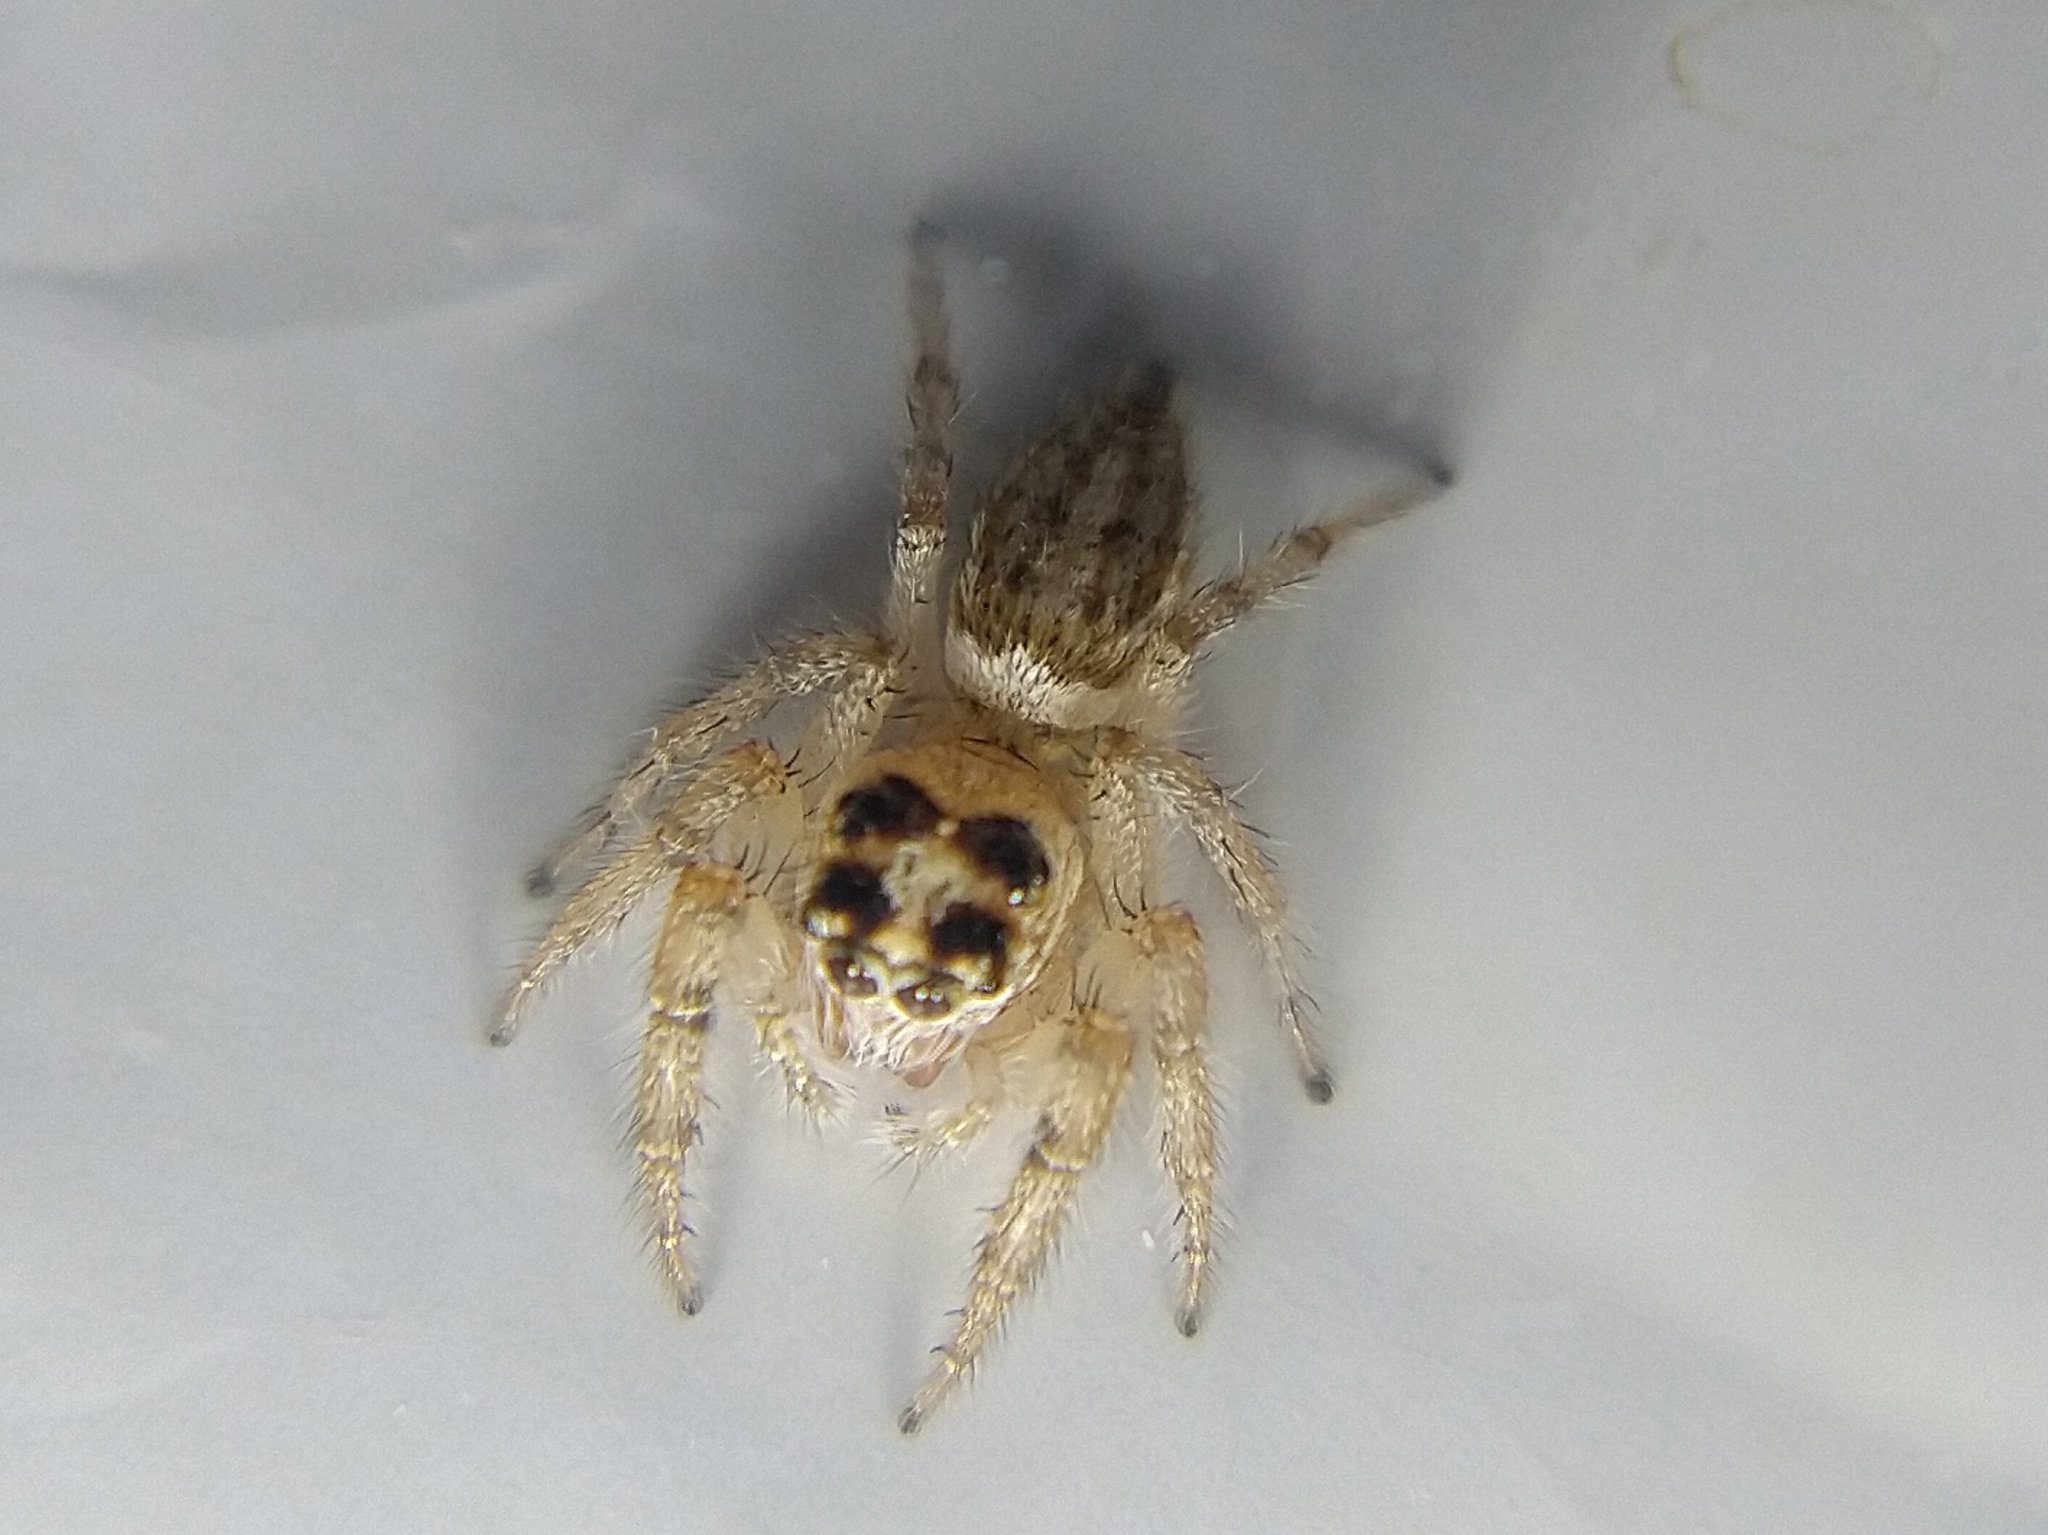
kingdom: Animalia
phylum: Arthropoda
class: Arachnida
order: Araneae
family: Salticidae
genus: Colonus
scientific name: Colonus hesperus
